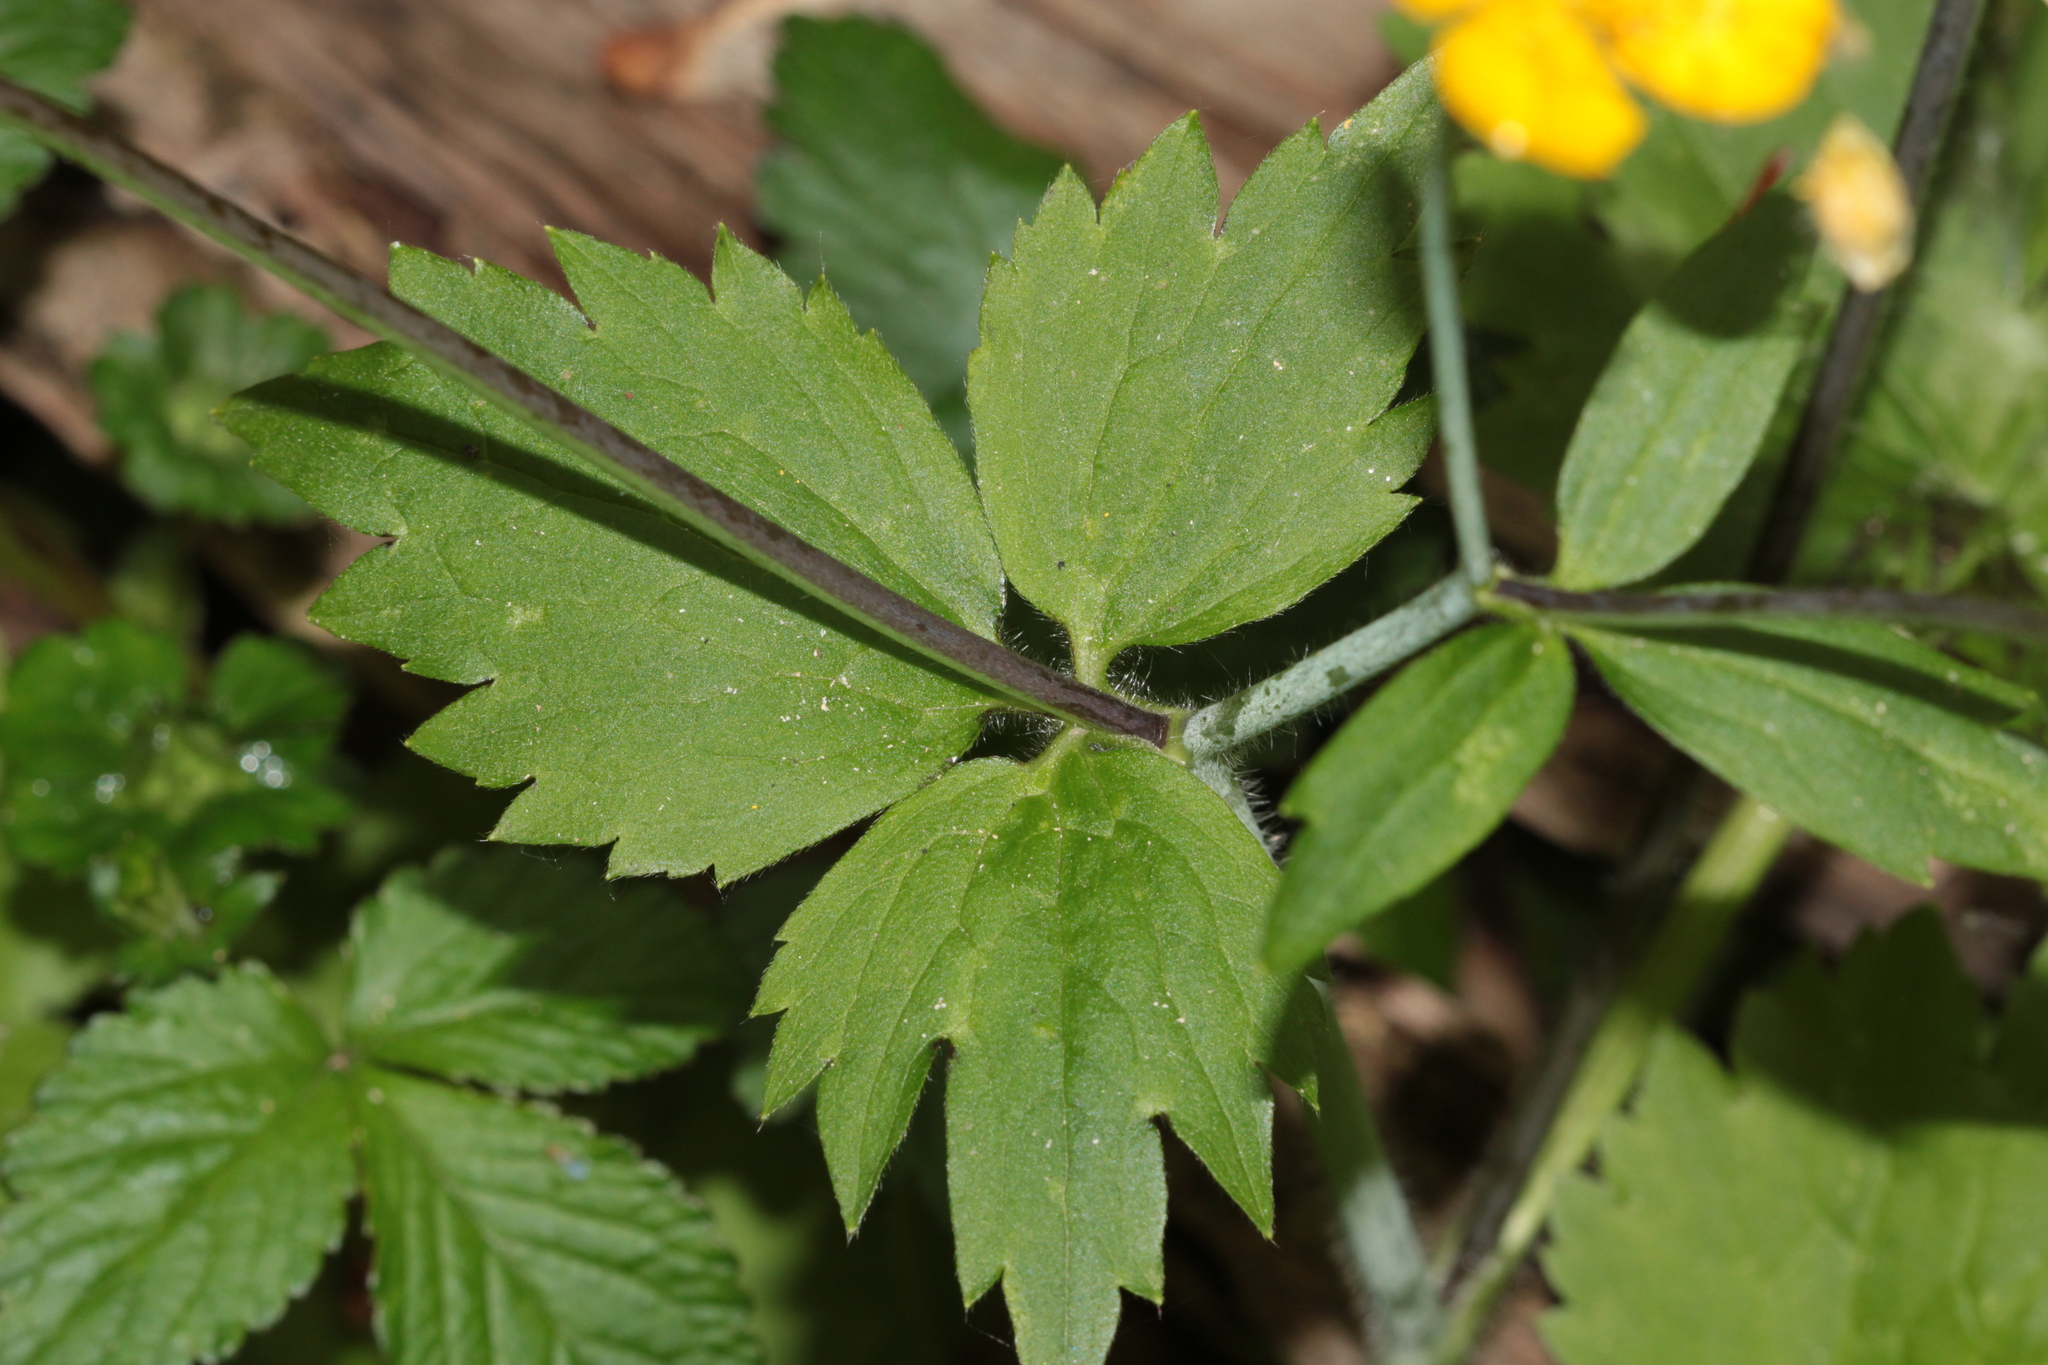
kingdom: Plantae
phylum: Tracheophyta
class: Magnoliopsida
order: Ranunculales
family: Ranunculaceae
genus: Ranunculus
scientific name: Ranunculus lanuginosus
